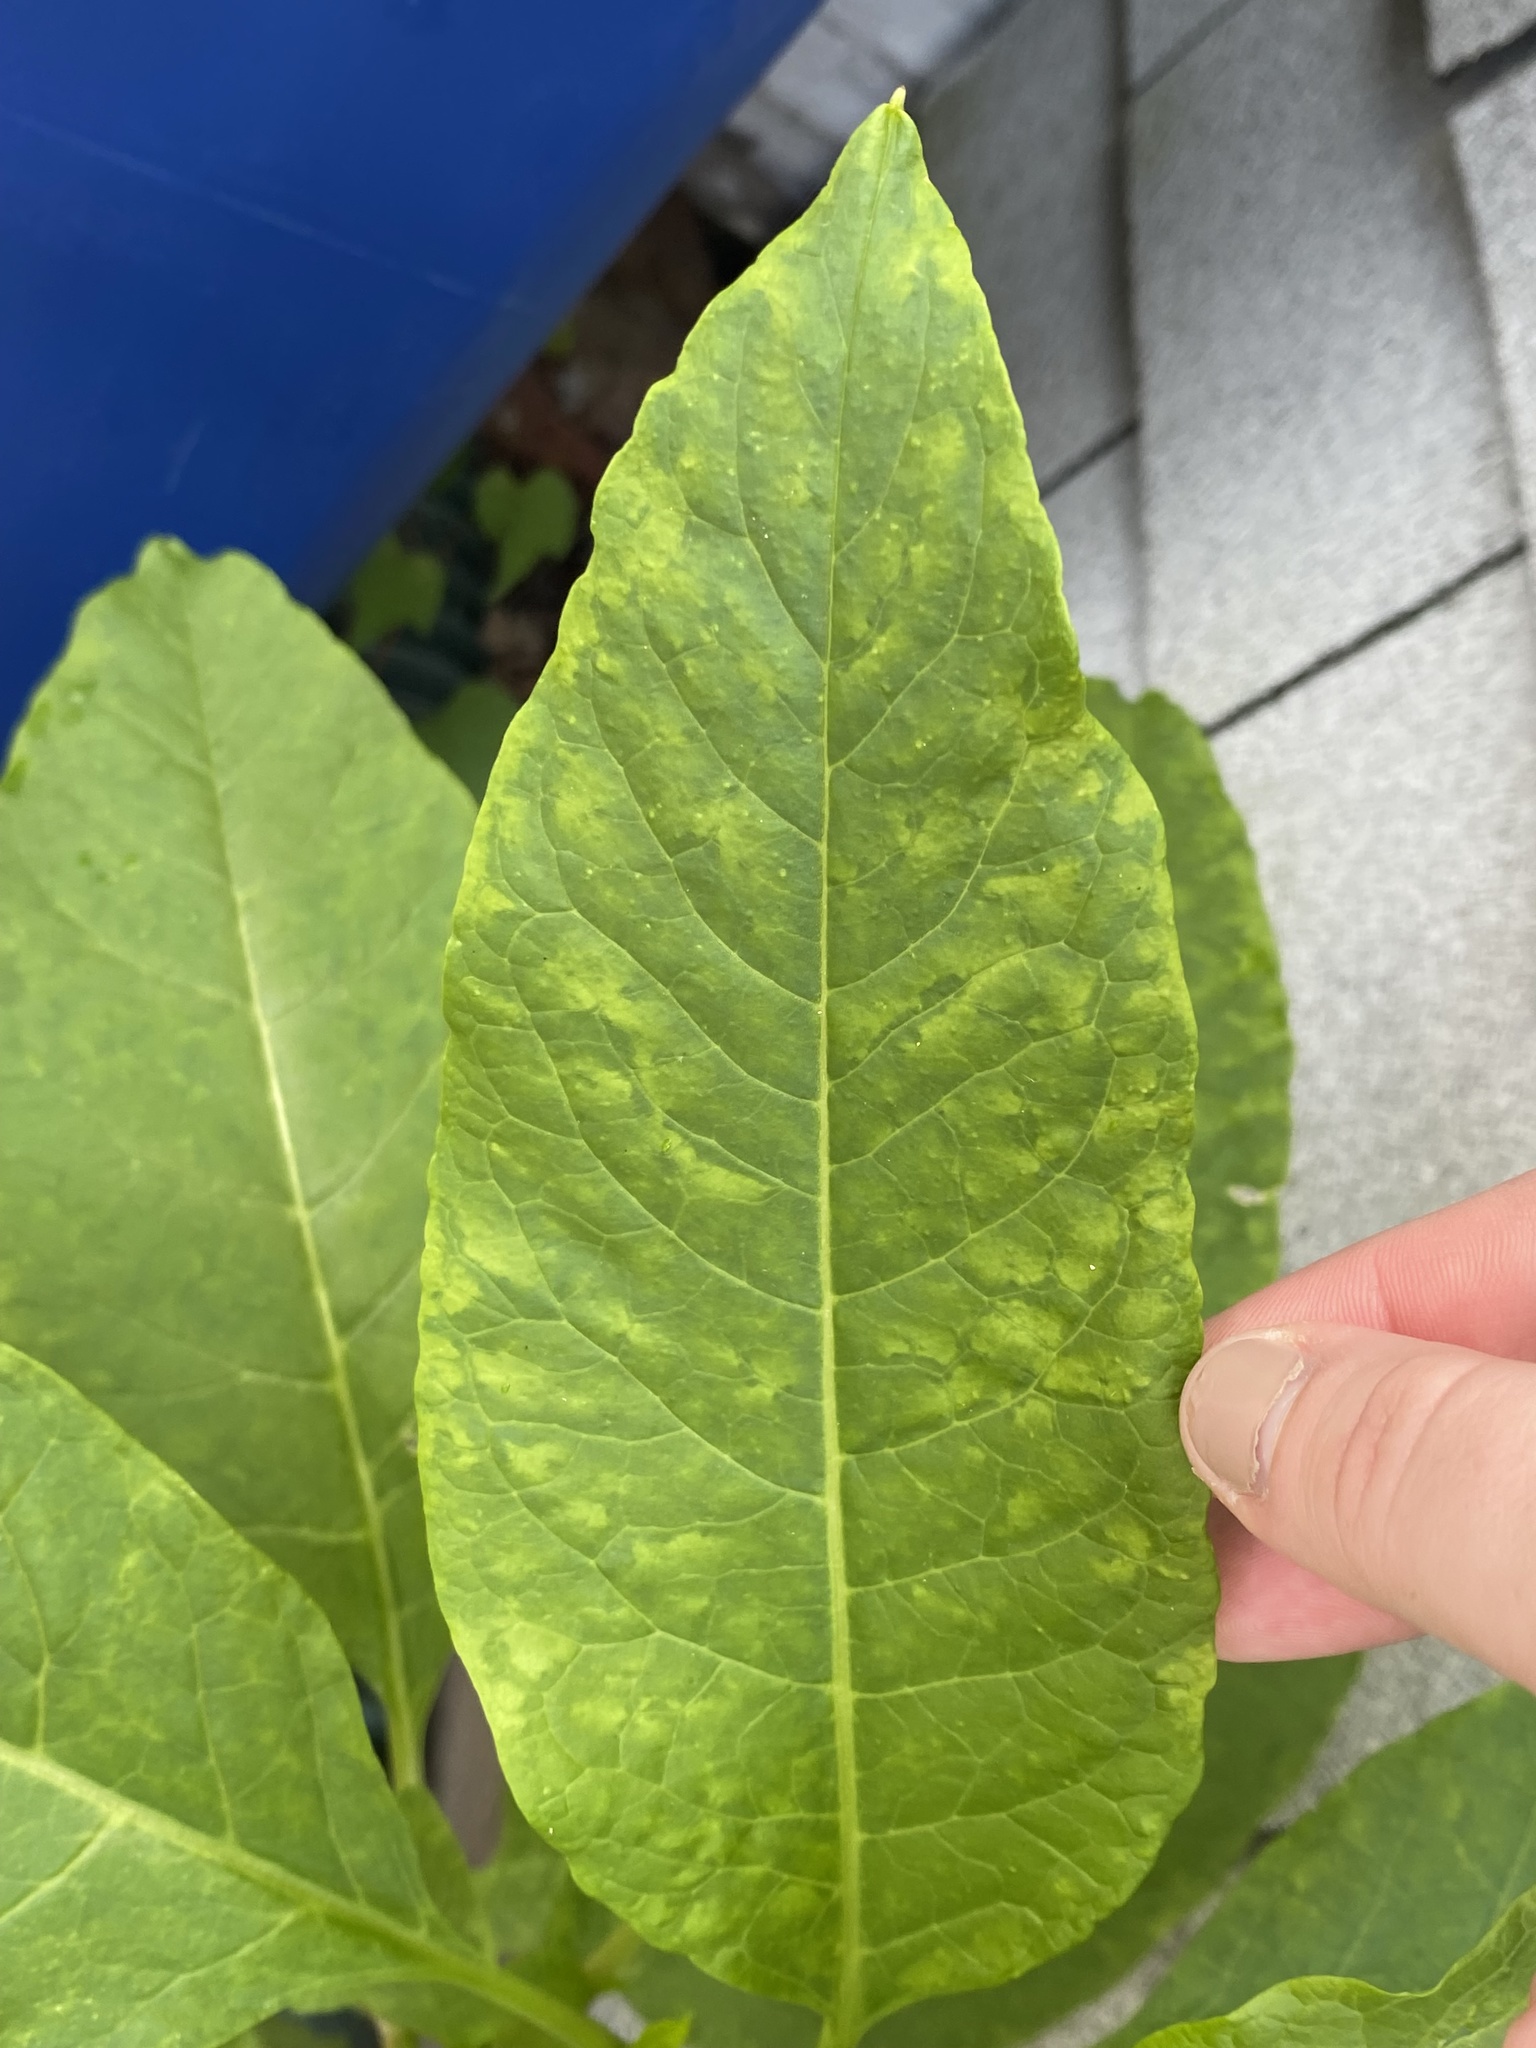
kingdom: Viruses
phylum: Pisuviricota
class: Stelpaviricetes
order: Patatavirales
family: Potyviridae
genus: Potyvirus
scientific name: Potyvirus Pokeweed mosaic virus
